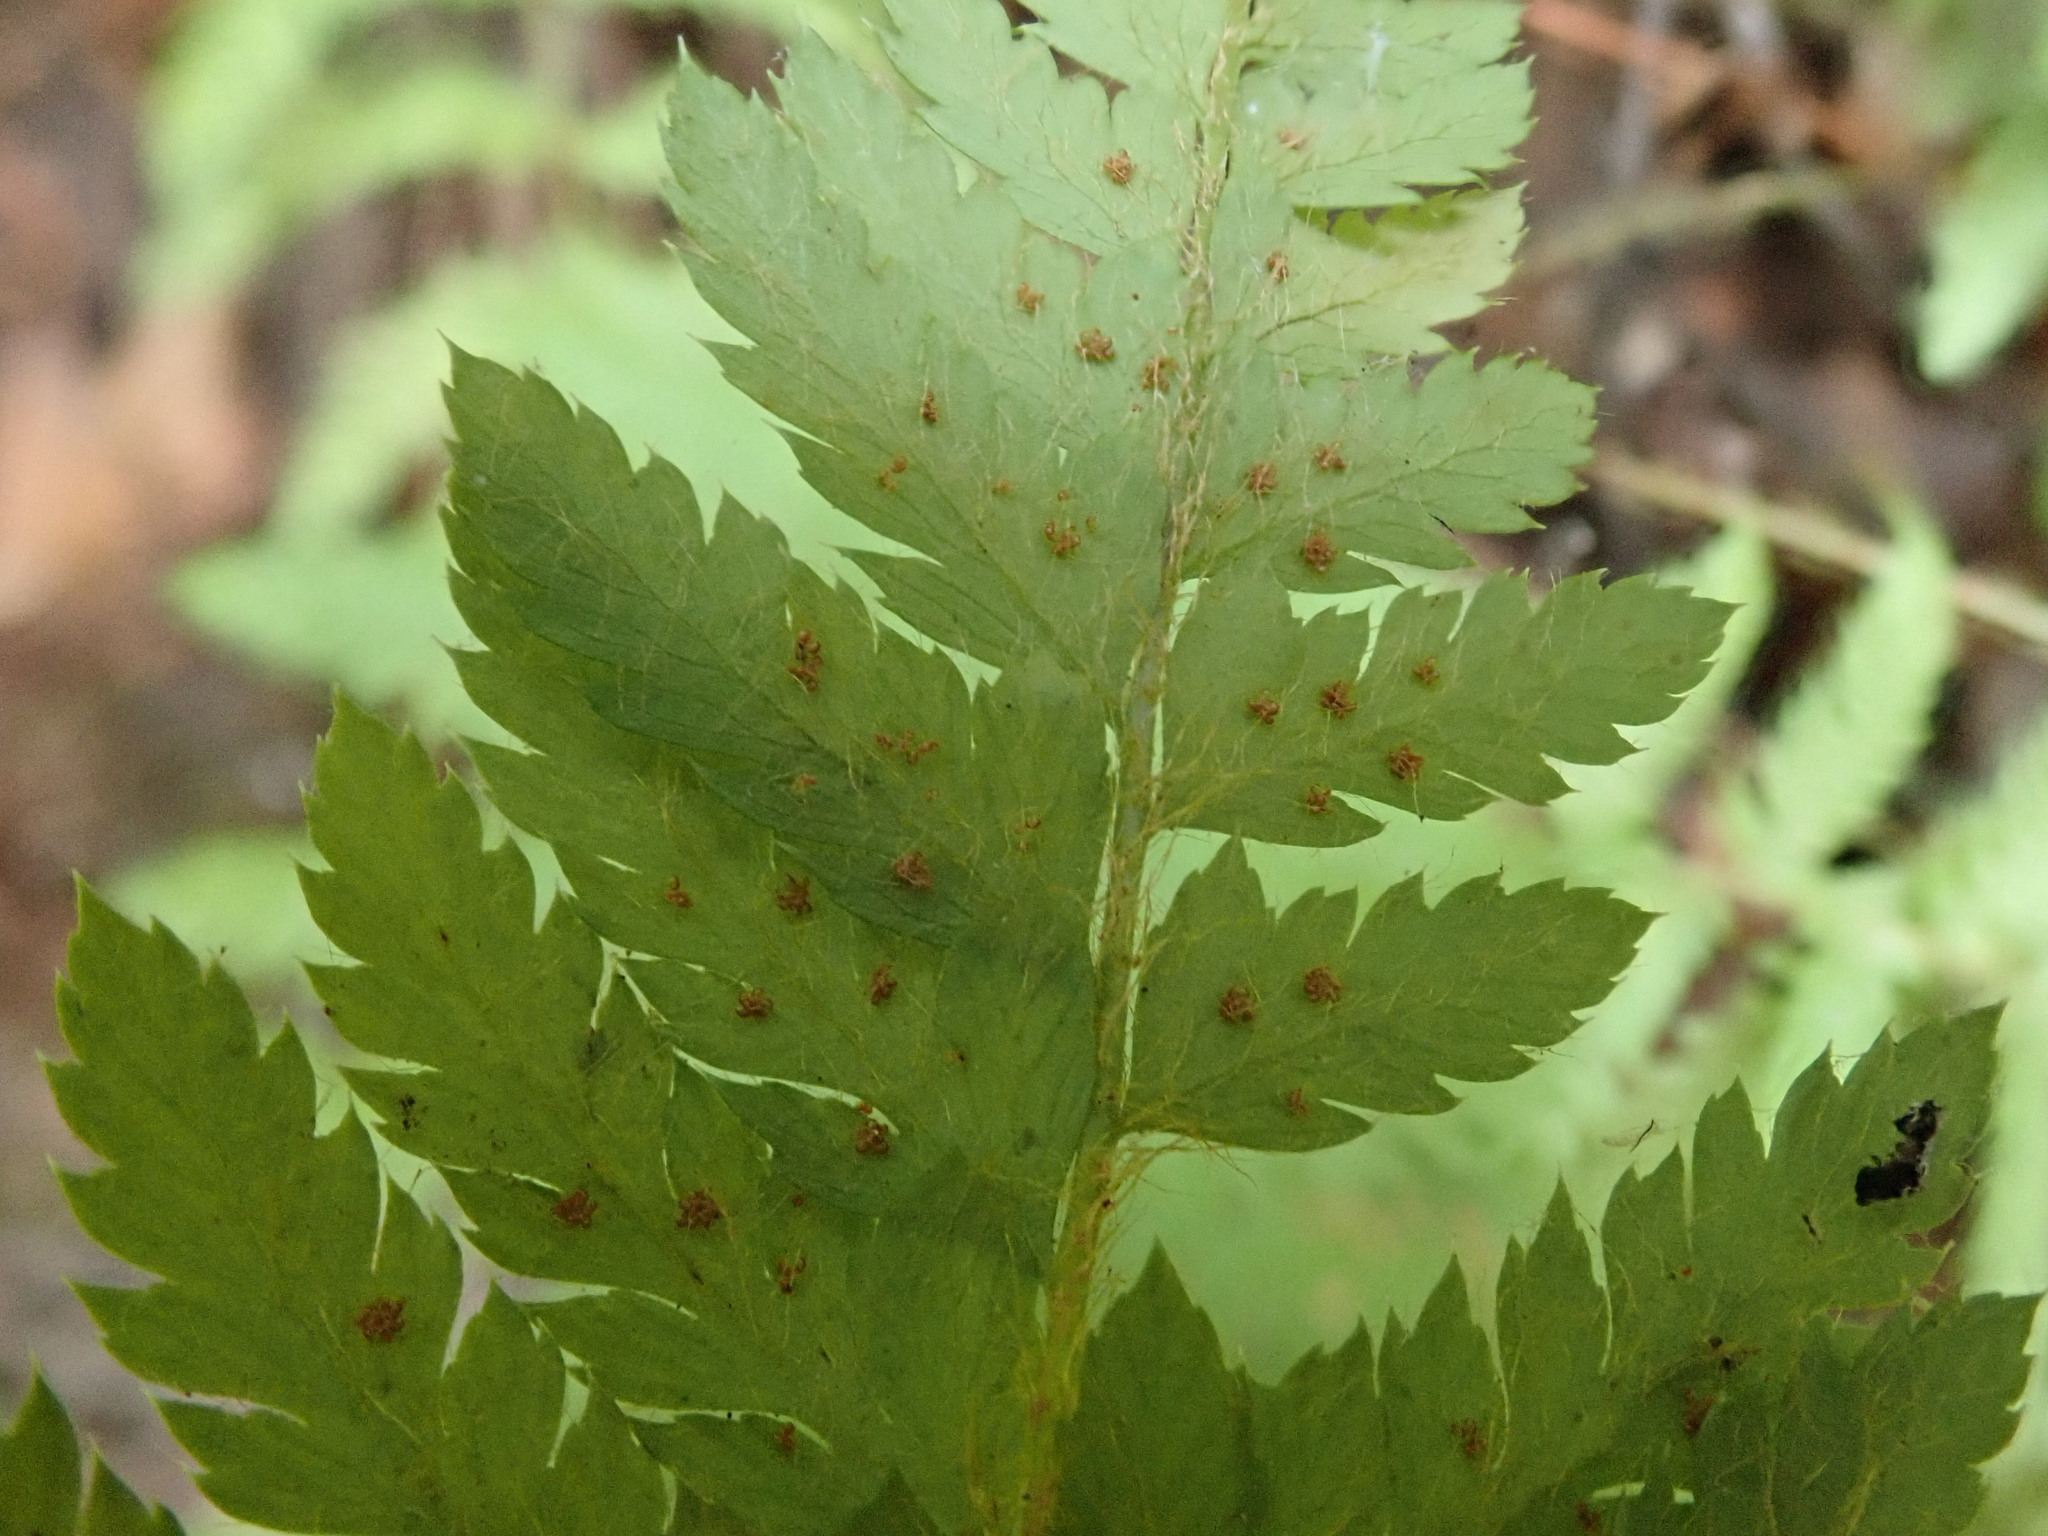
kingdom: Plantae
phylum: Tracheophyta
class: Polypodiopsida
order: Polypodiales
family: Dryopteridaceae
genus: Polystichum
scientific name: Polystichum dudleyi
